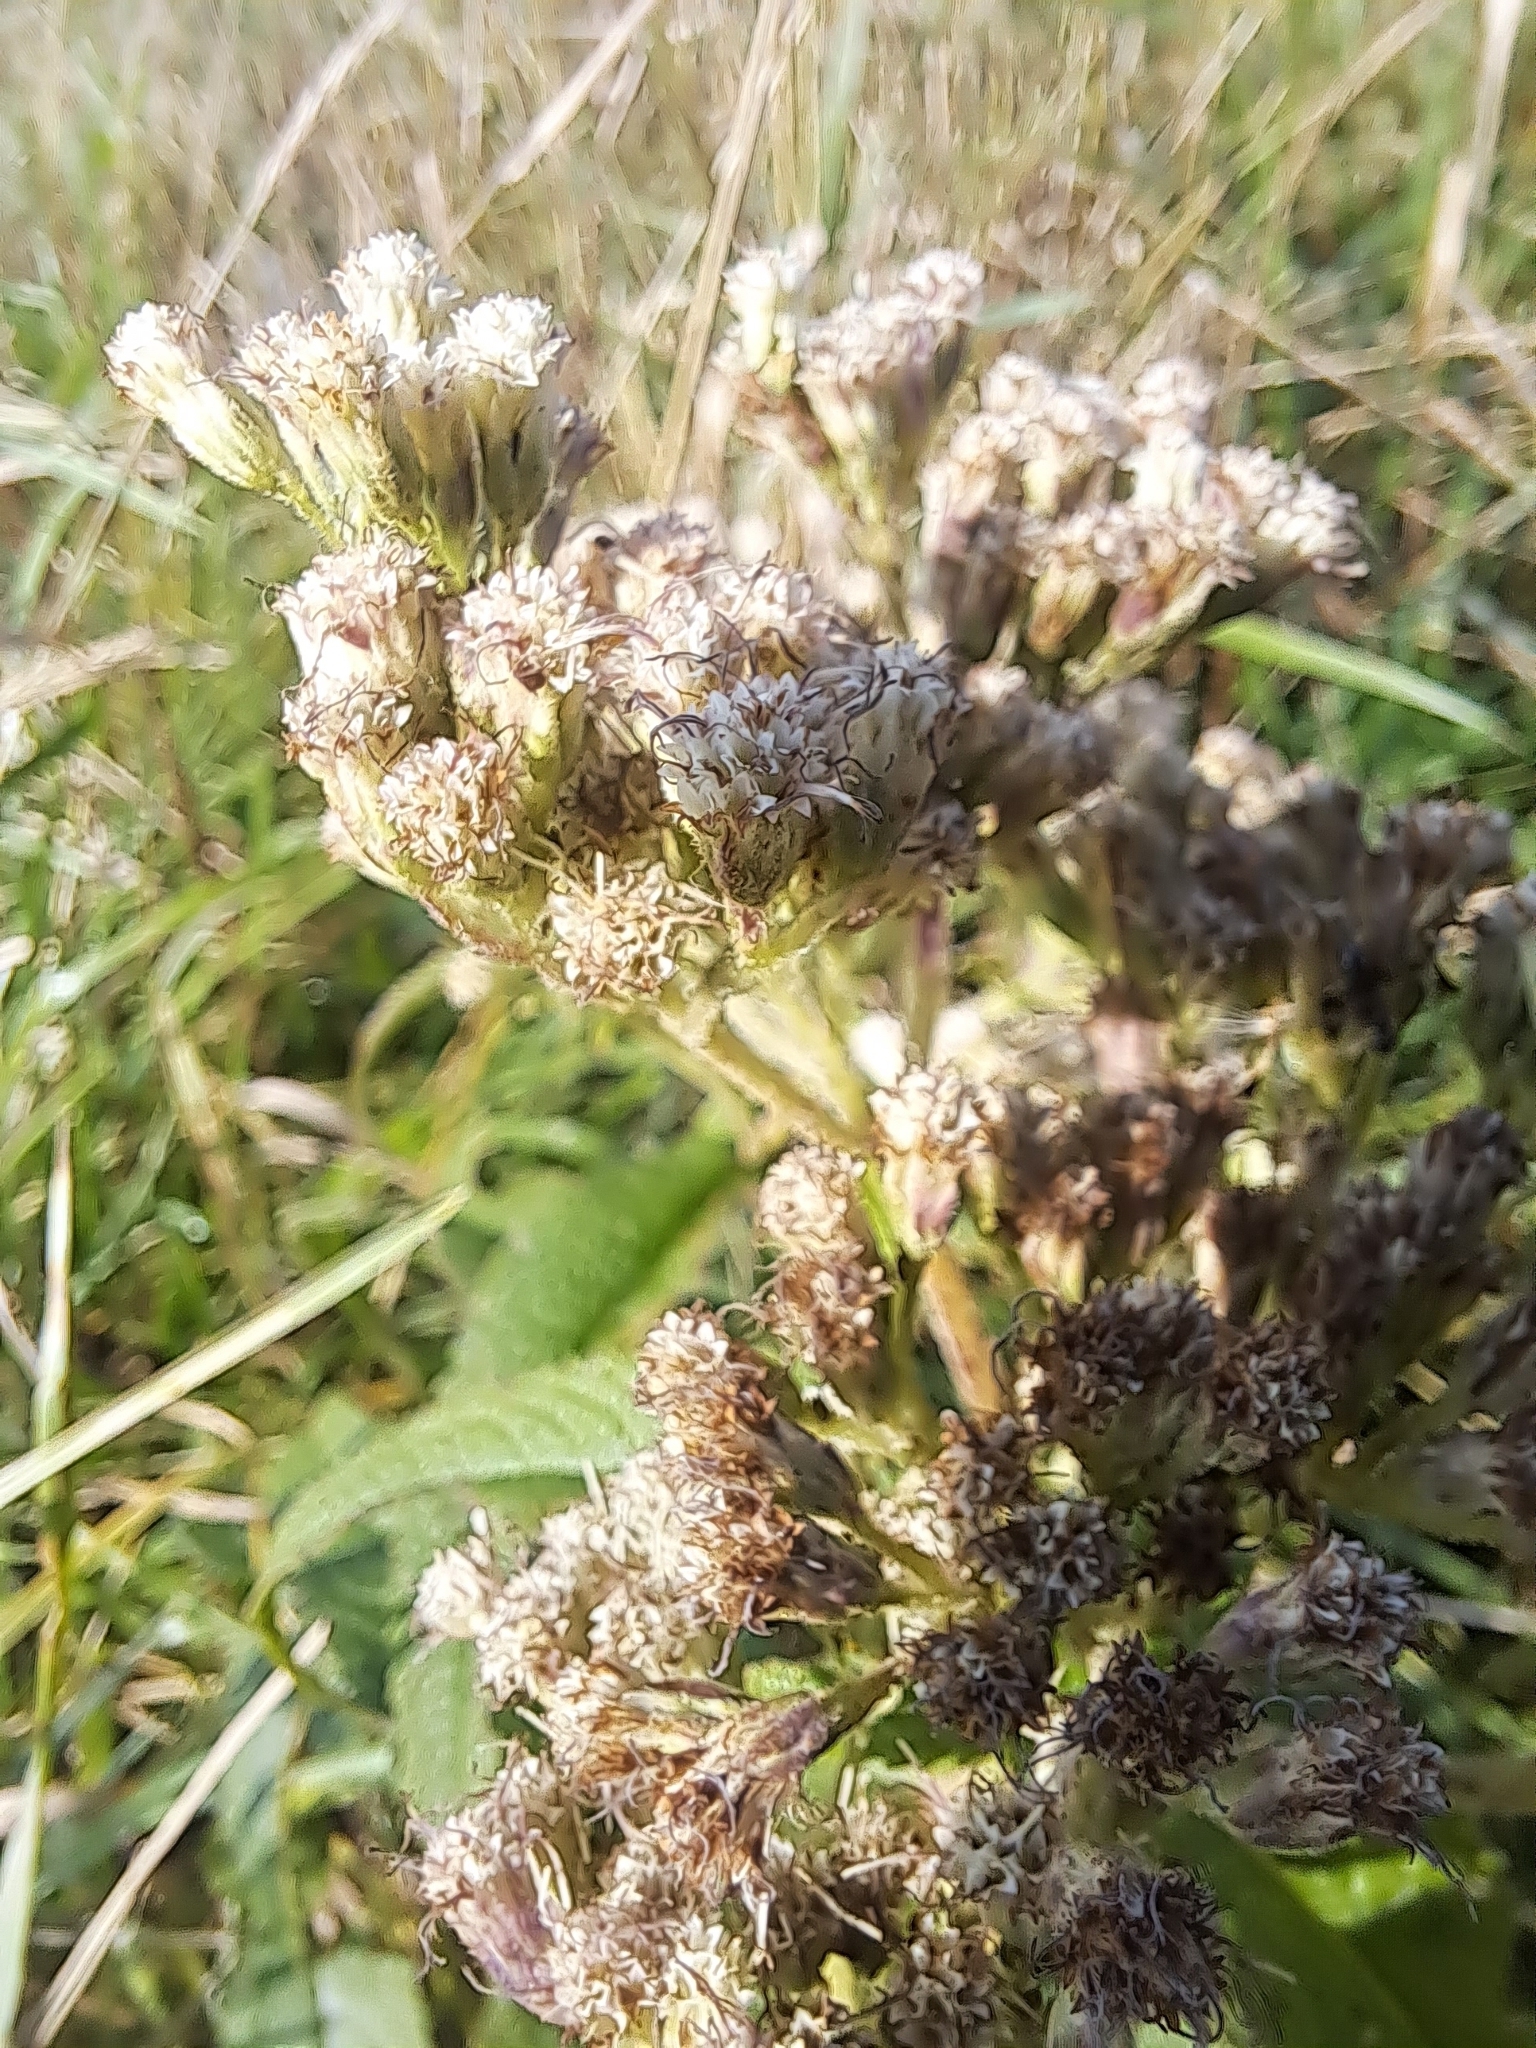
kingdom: Plantae
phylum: Tracheophyta
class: Magnoliopsida
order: Asterales
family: Asteraceae
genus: Eupatorium
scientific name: Eupatorium perfoliatum
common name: Boneset
